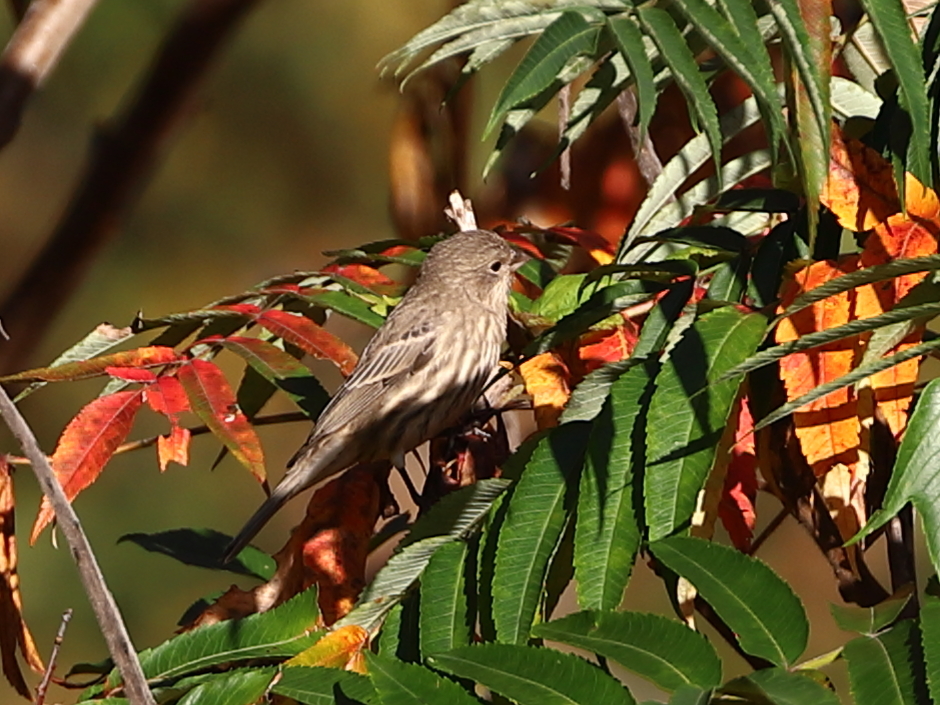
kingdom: Animalia
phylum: Chordata
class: Aves
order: Passeriformes
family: Fringillidae
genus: Haemorhous
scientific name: Haemorhous mexicanus
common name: House finch
